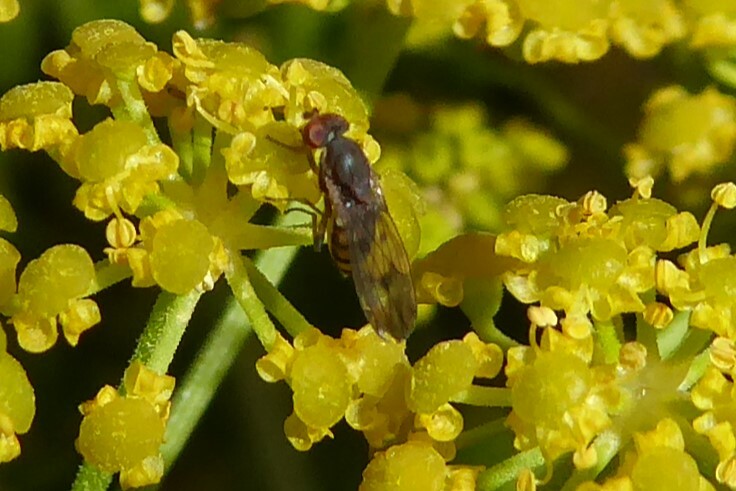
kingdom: Animalia
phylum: Arthropoda
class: Insecta
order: Diptera
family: Heleomyzidae
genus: Fenwickia
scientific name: Fenwickia hirsuta
